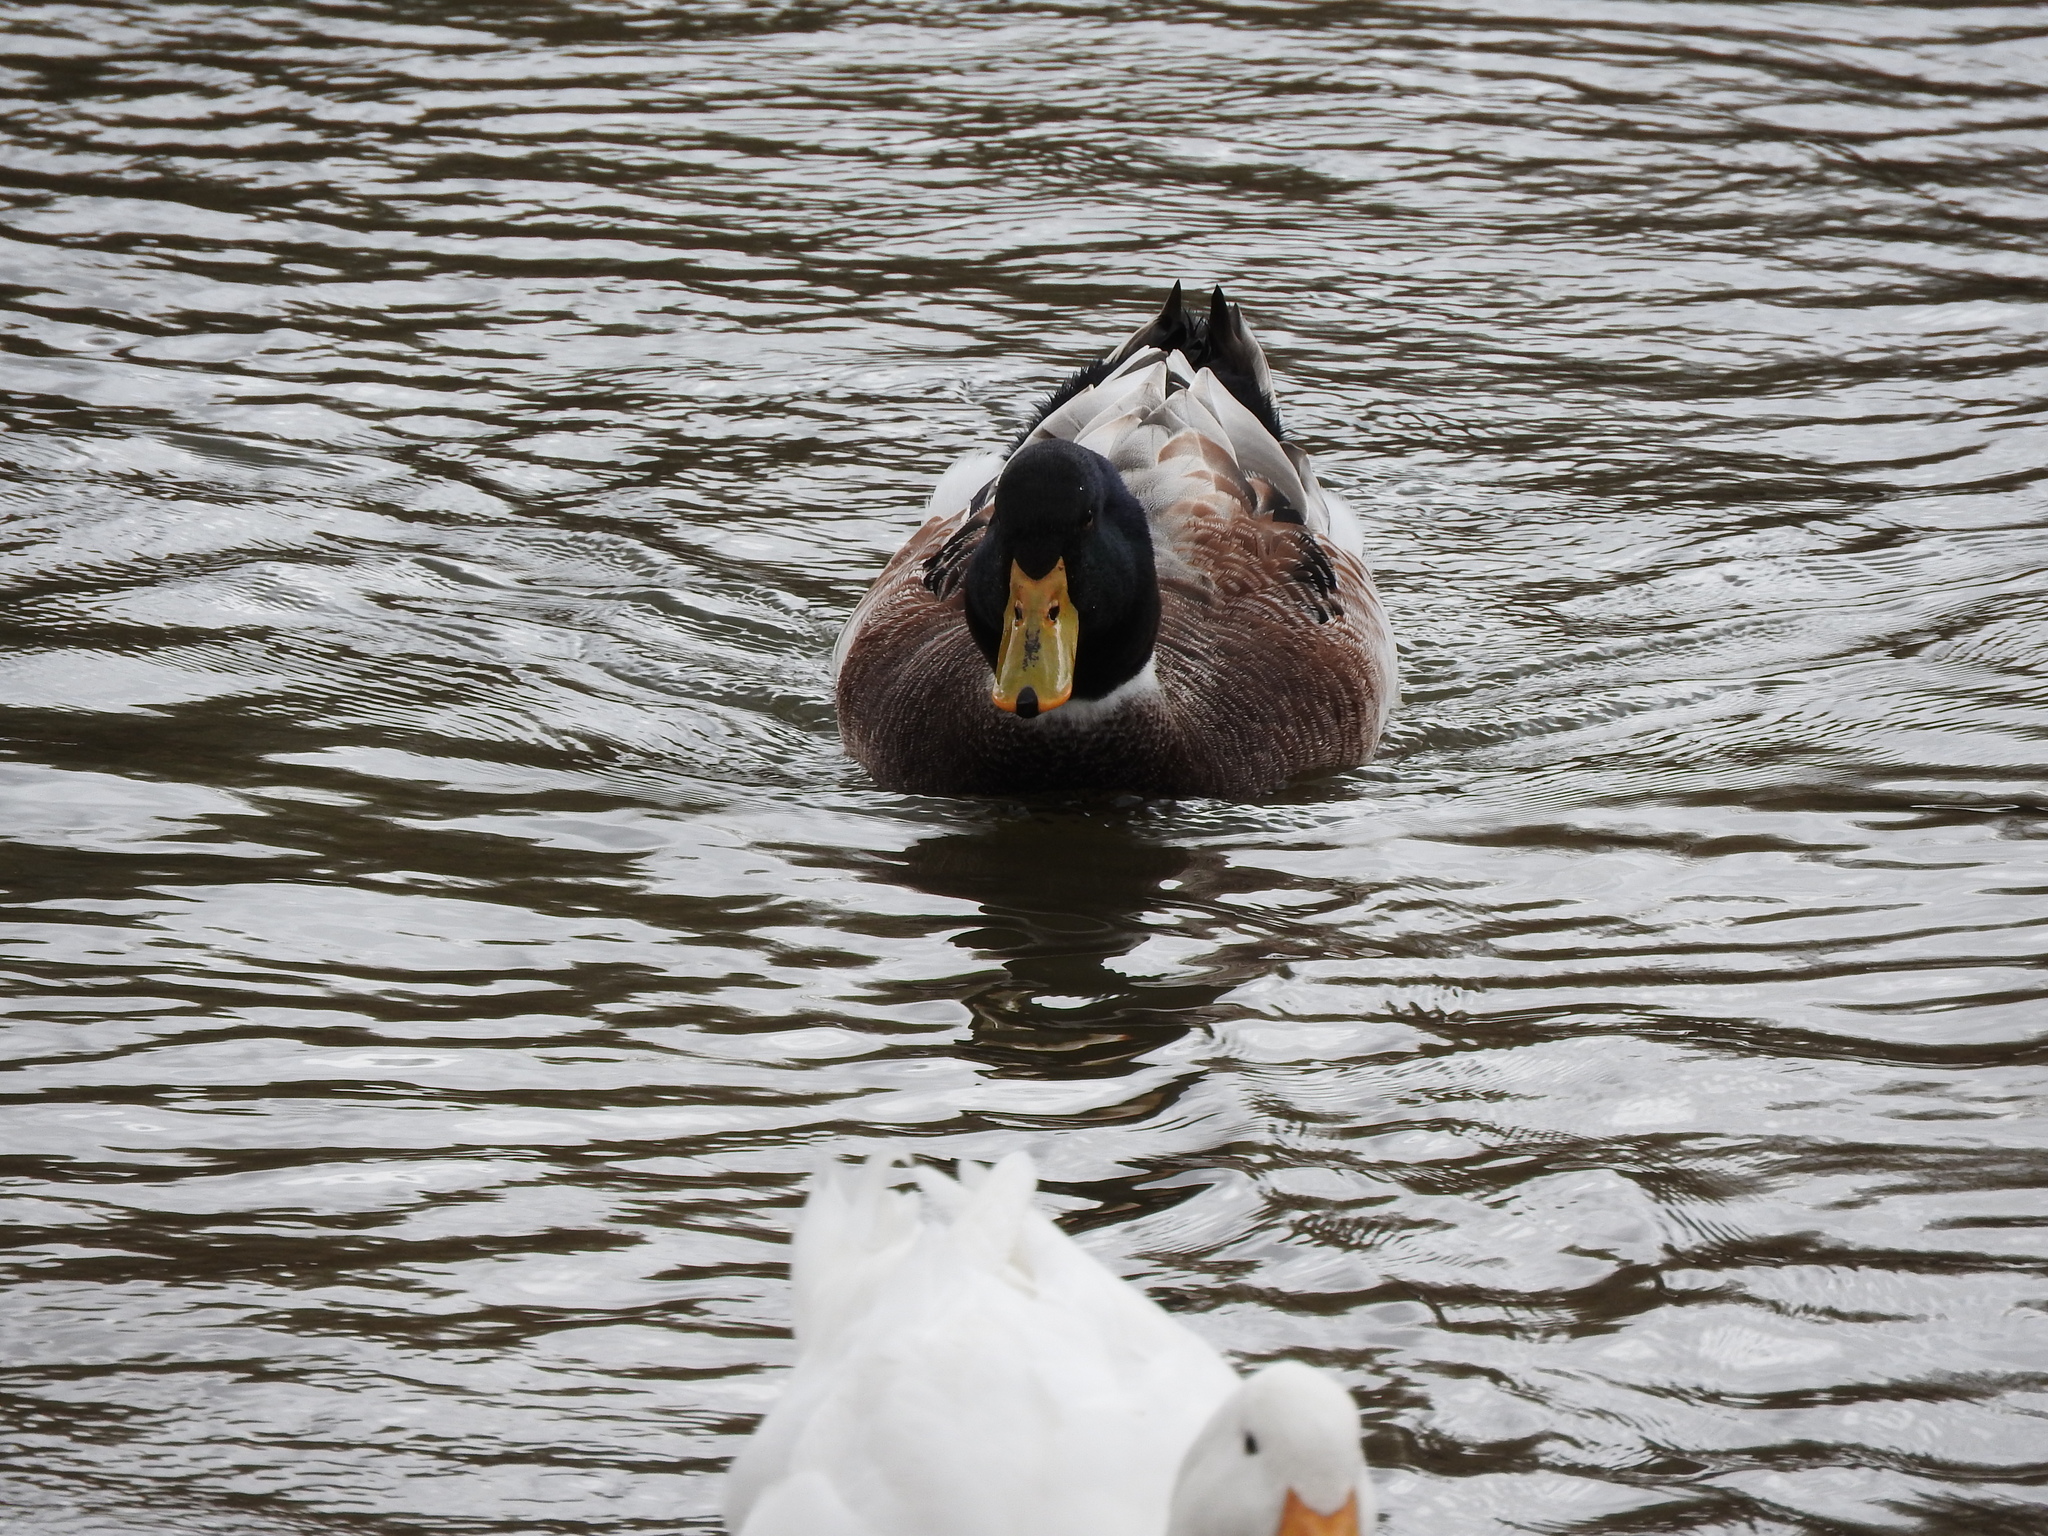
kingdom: Animalia
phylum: Chordata
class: Aves
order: Anseriformes
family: Anatidae
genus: Anas
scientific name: Anas platyrhynchos
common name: Mallard
